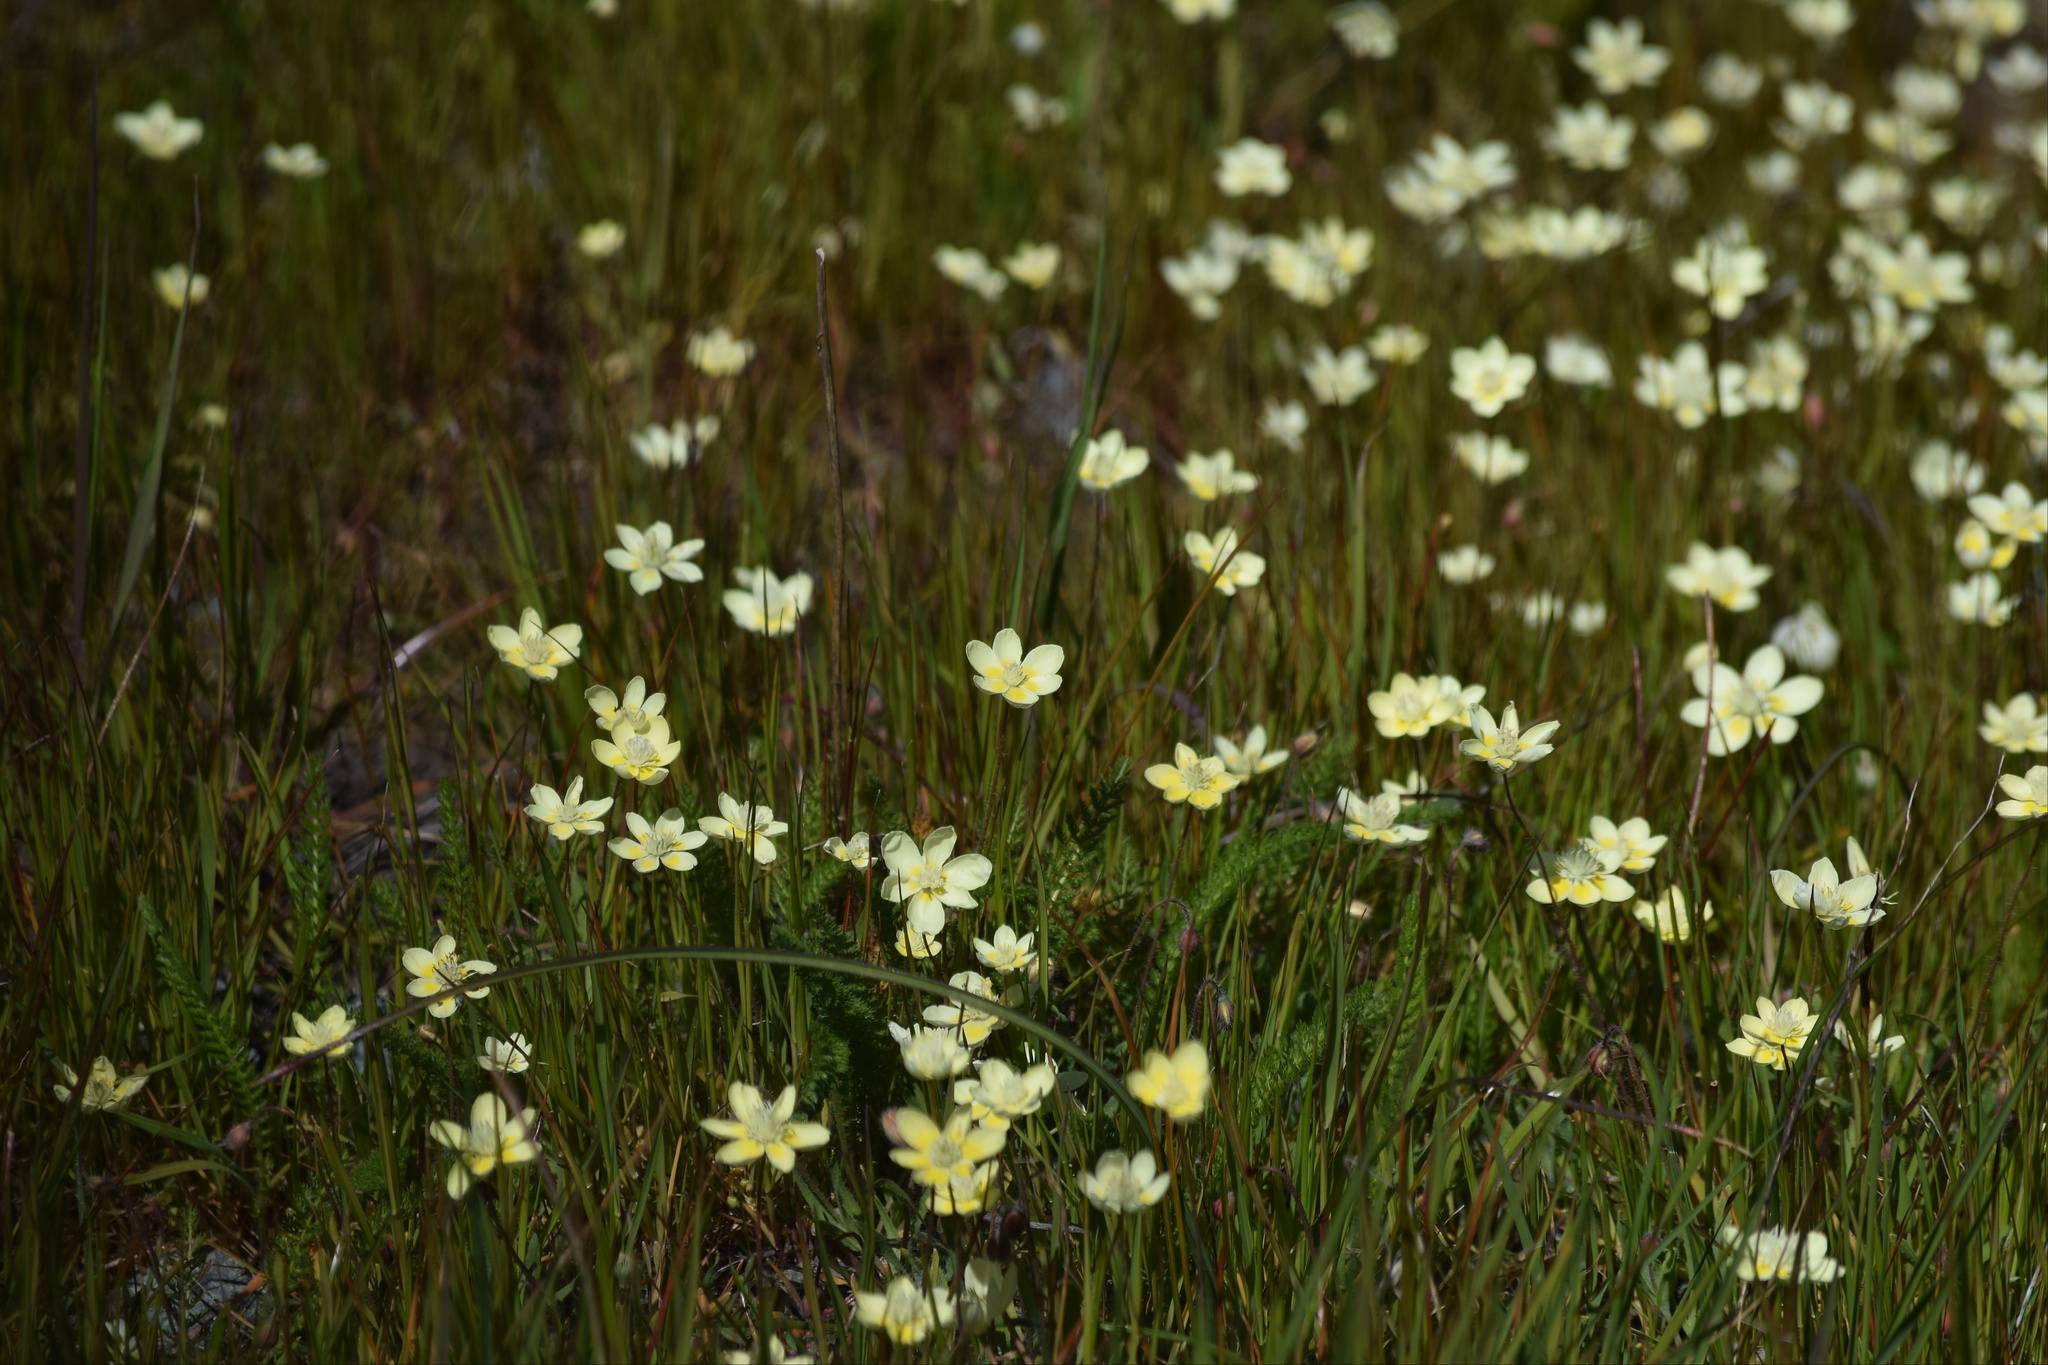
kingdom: Plantae
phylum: Tracheophyta
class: Magnoliopsida
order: Ranunculales
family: Papaveraceae
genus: Platystemon
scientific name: Platystemon californicus
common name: Cream-cups
